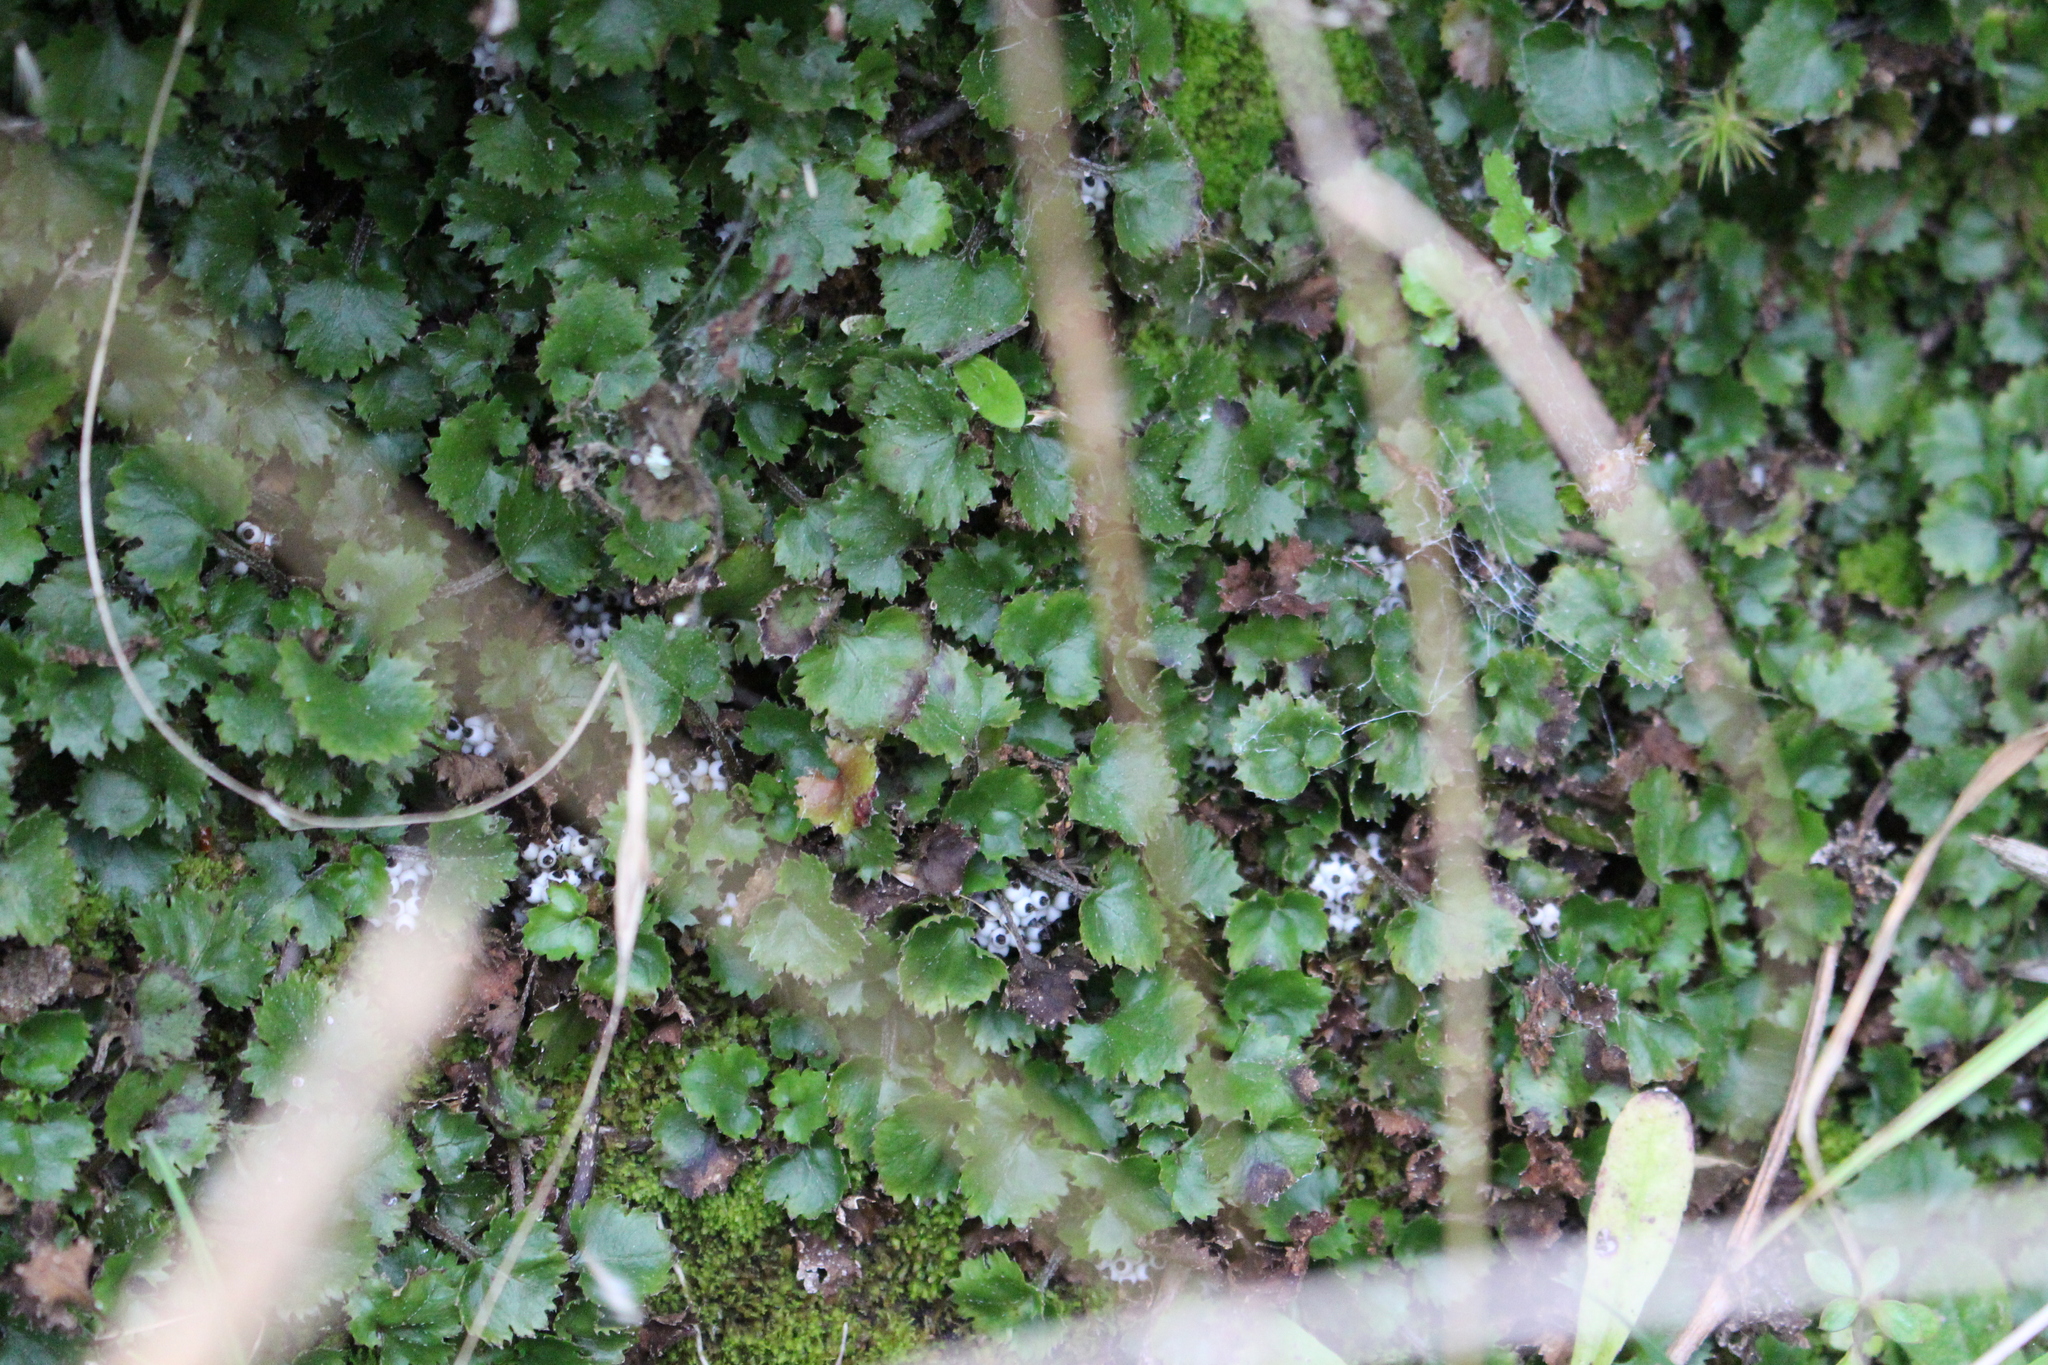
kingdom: Plantae
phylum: Tracheophyta
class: Magnoliopsida
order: Gunnerales
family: Gunneraceae
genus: Gunnera
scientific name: Gunnera monoica
